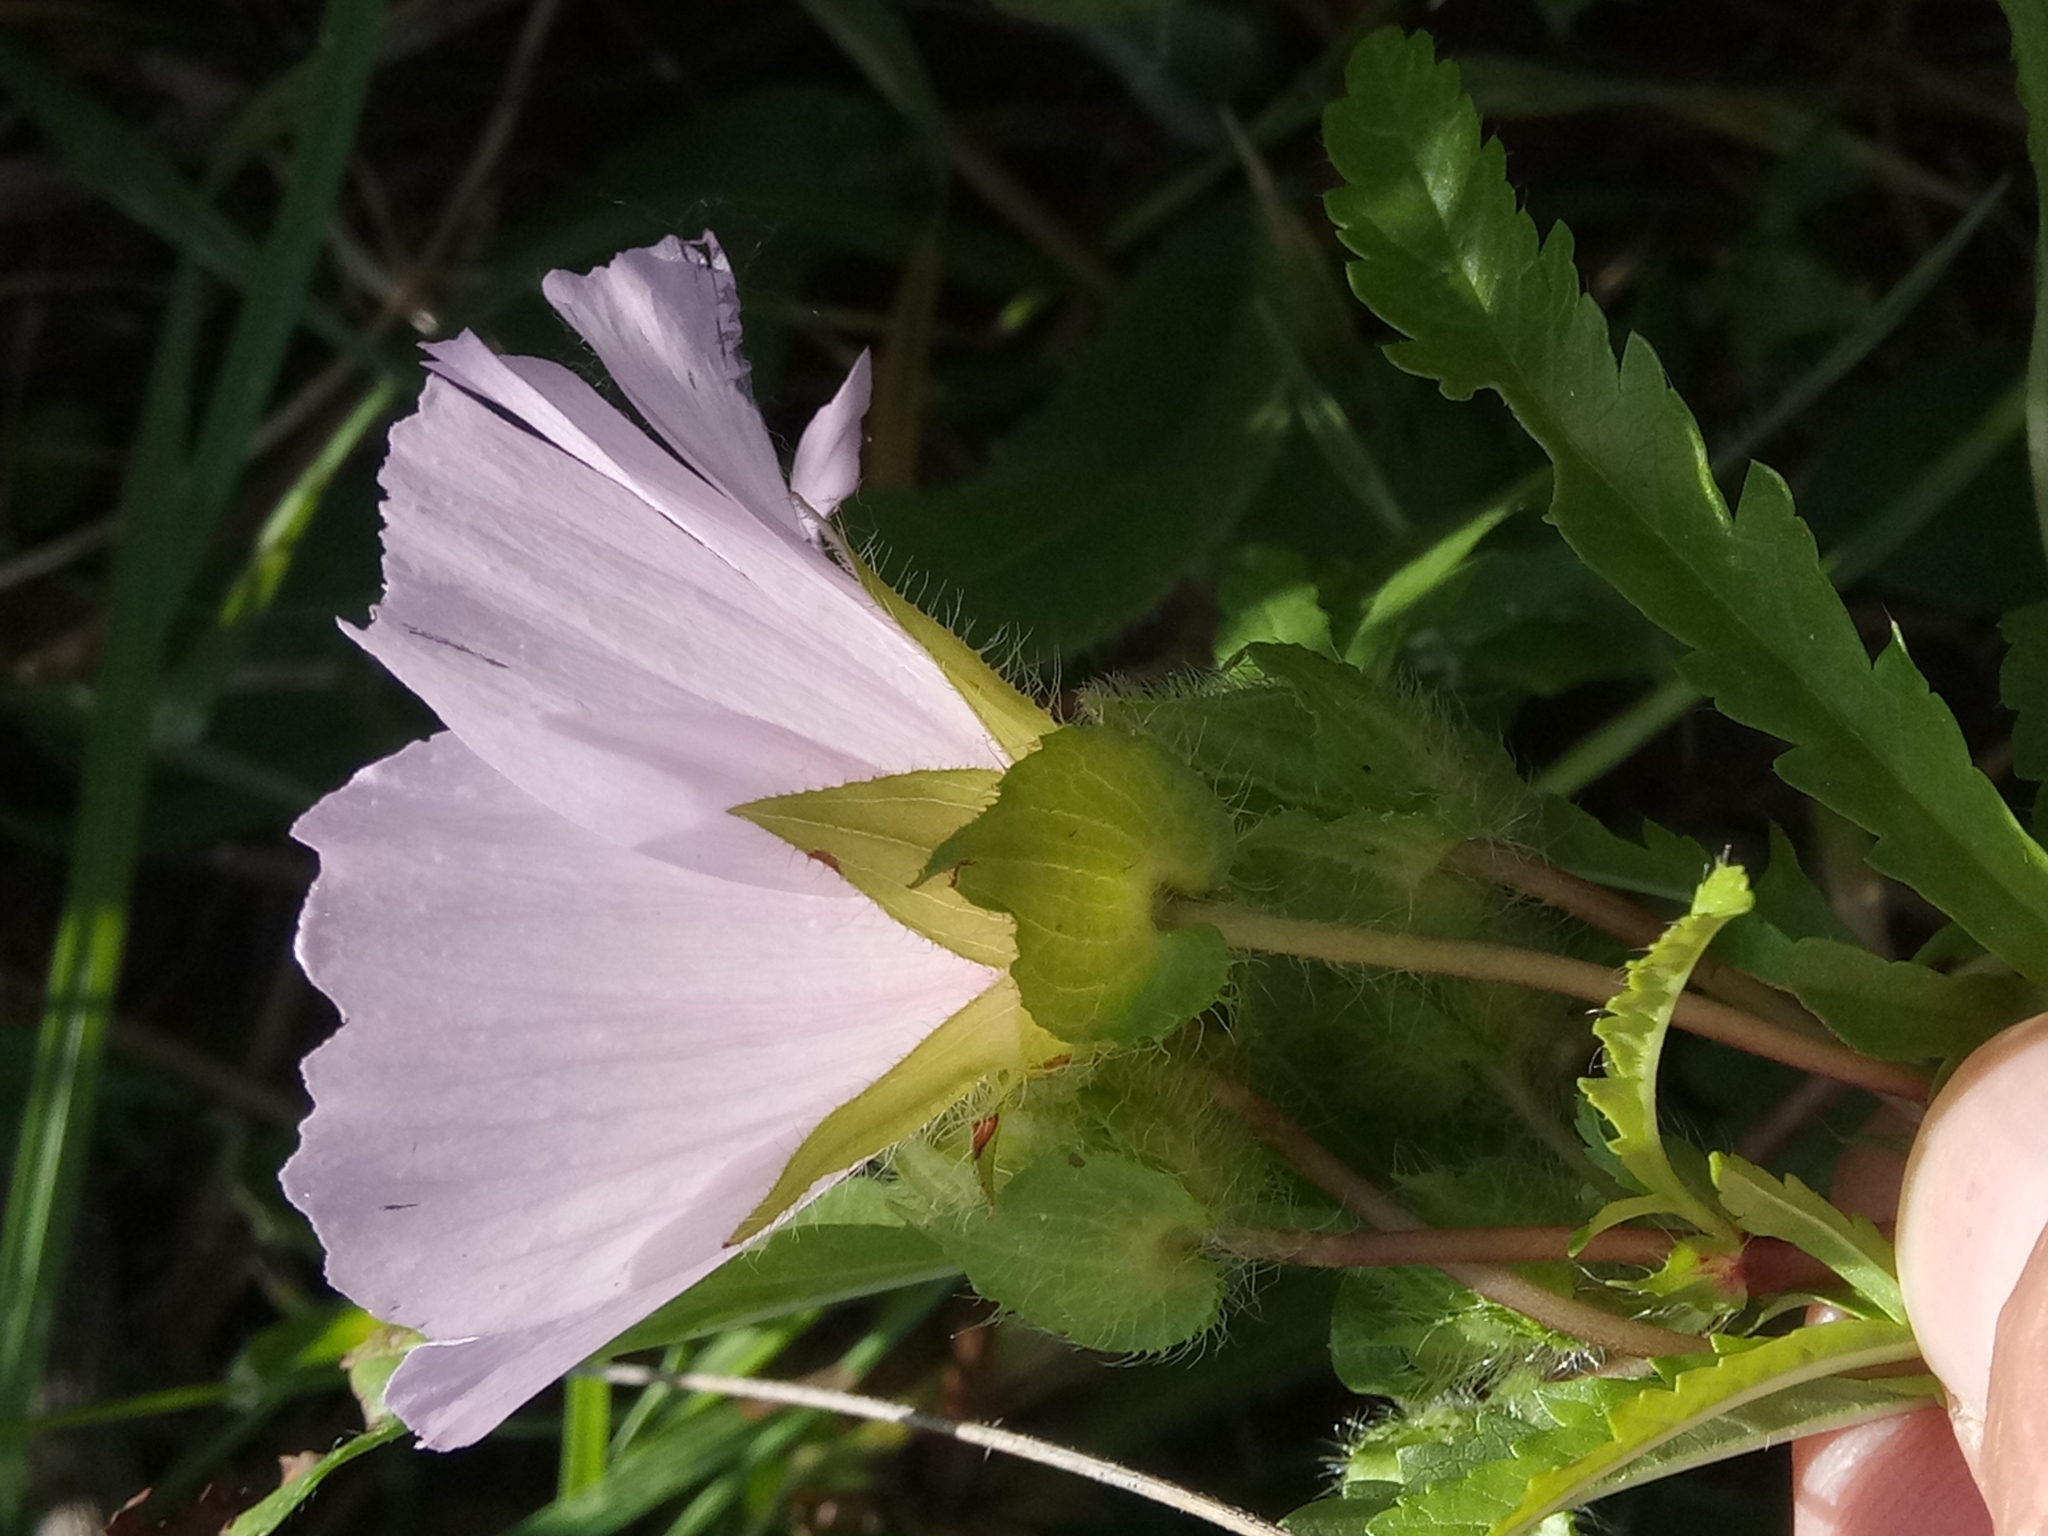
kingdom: Plantae
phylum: Tracheophyta
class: Magnoliopsida
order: Malvales
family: Malvaceae
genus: Malope
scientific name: Malope malacoides
